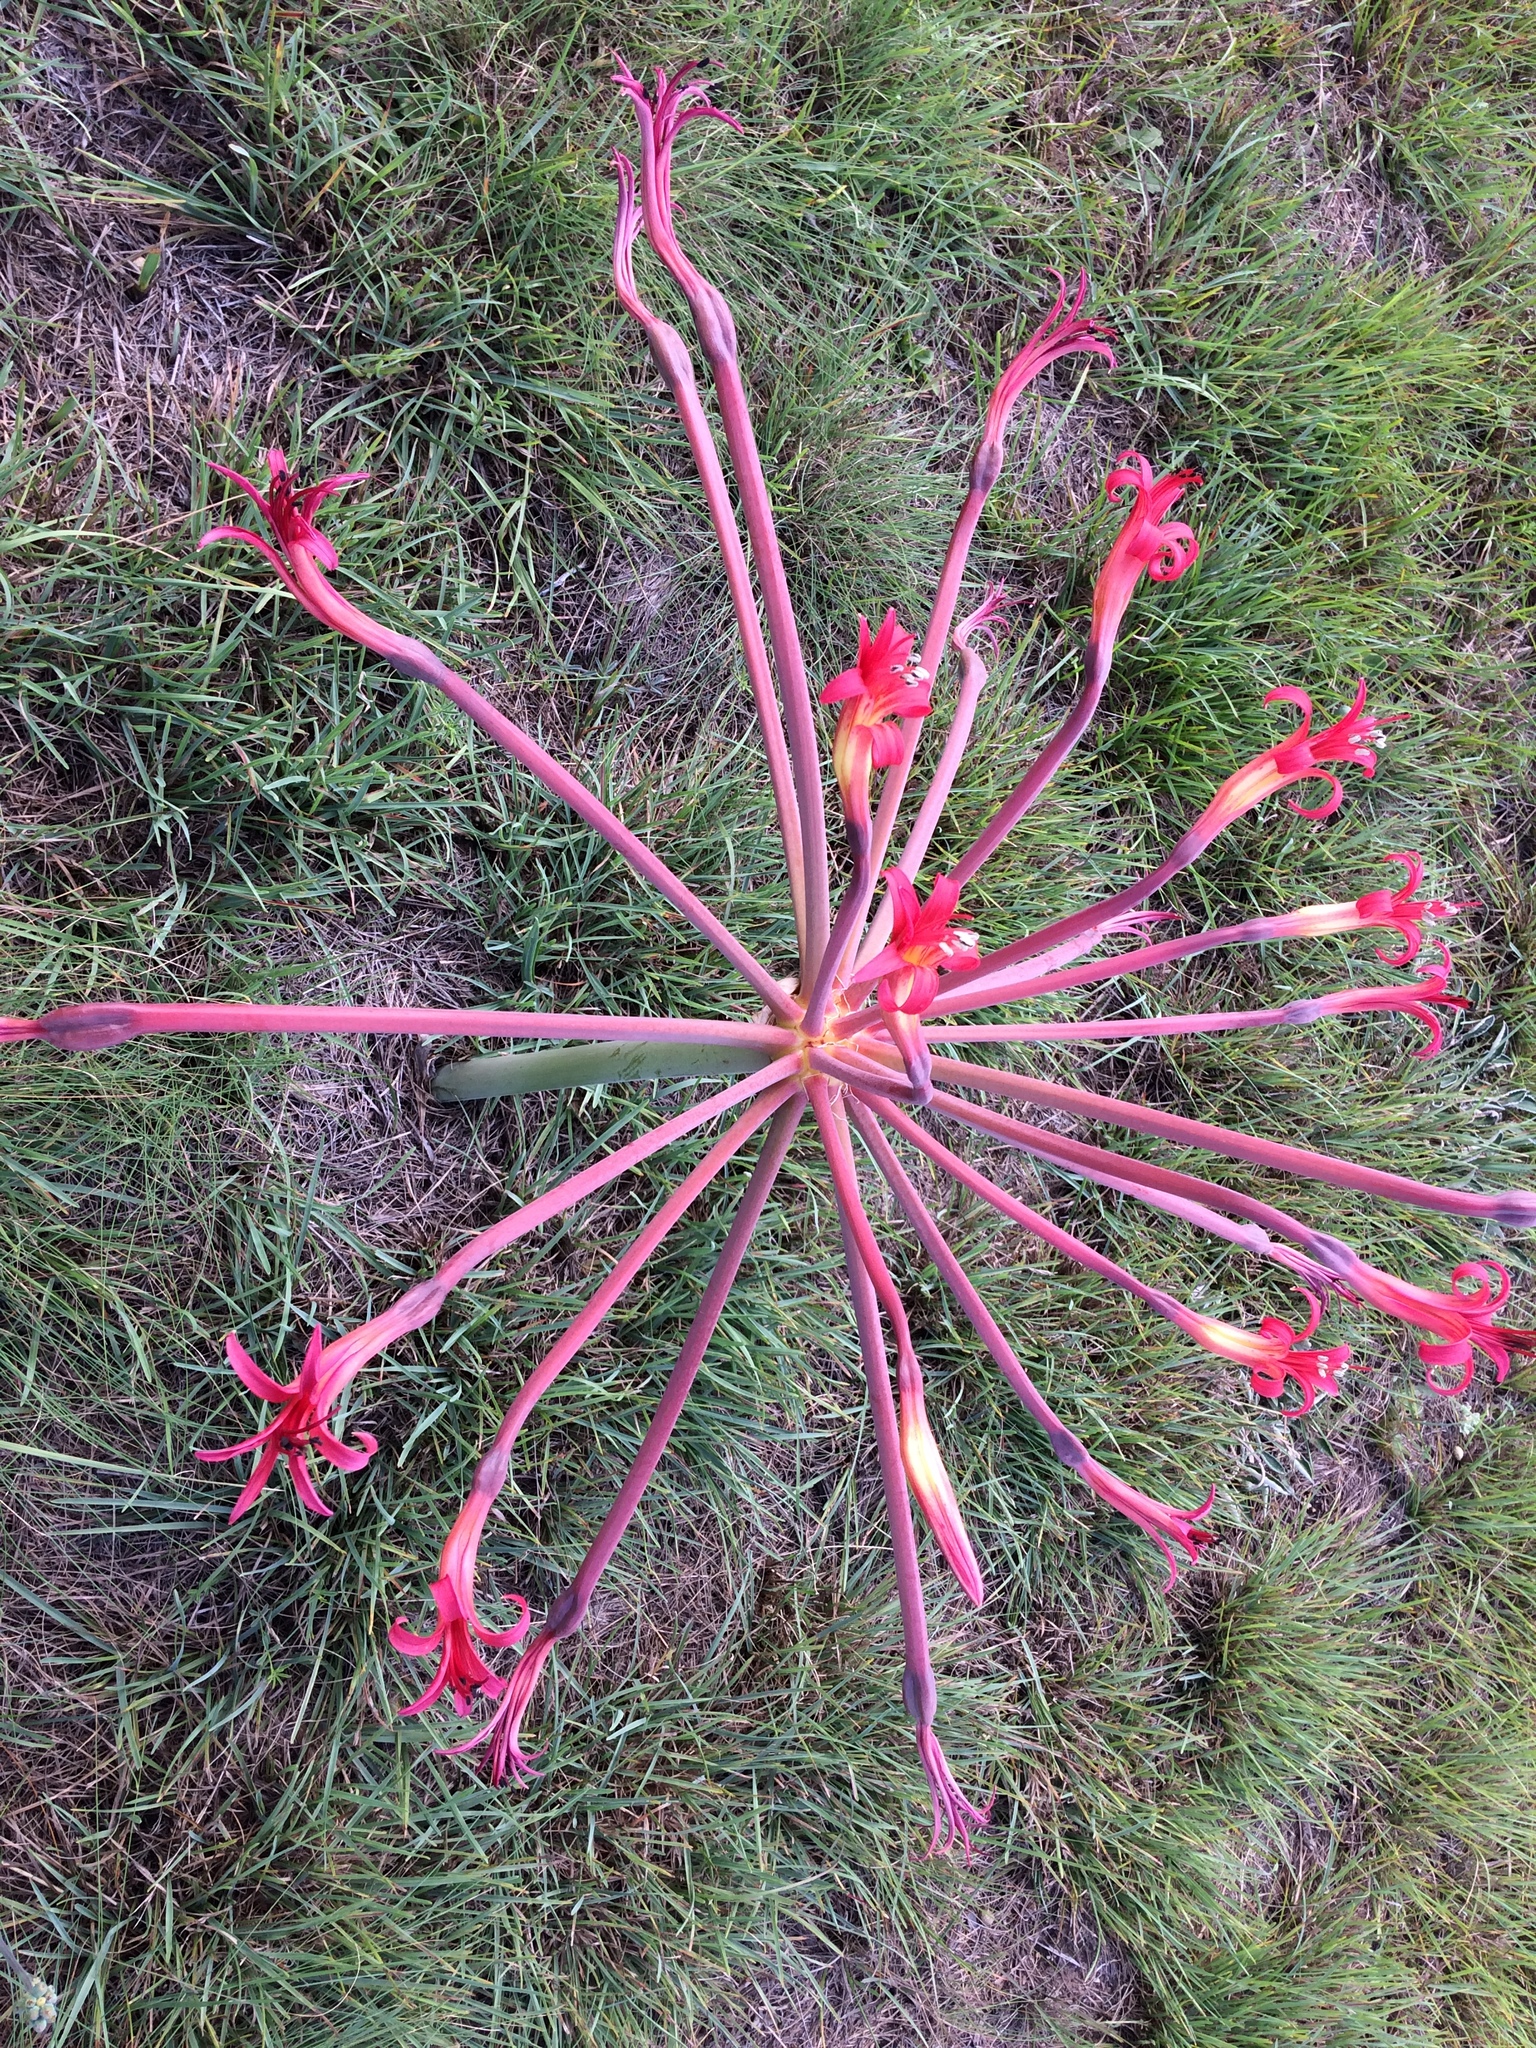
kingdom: Plantae
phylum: Tracheophyta
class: Liliopsida
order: Asparagales
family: Amaryllidaceae
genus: Brunsvigia
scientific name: Brunsvigia litoralis
